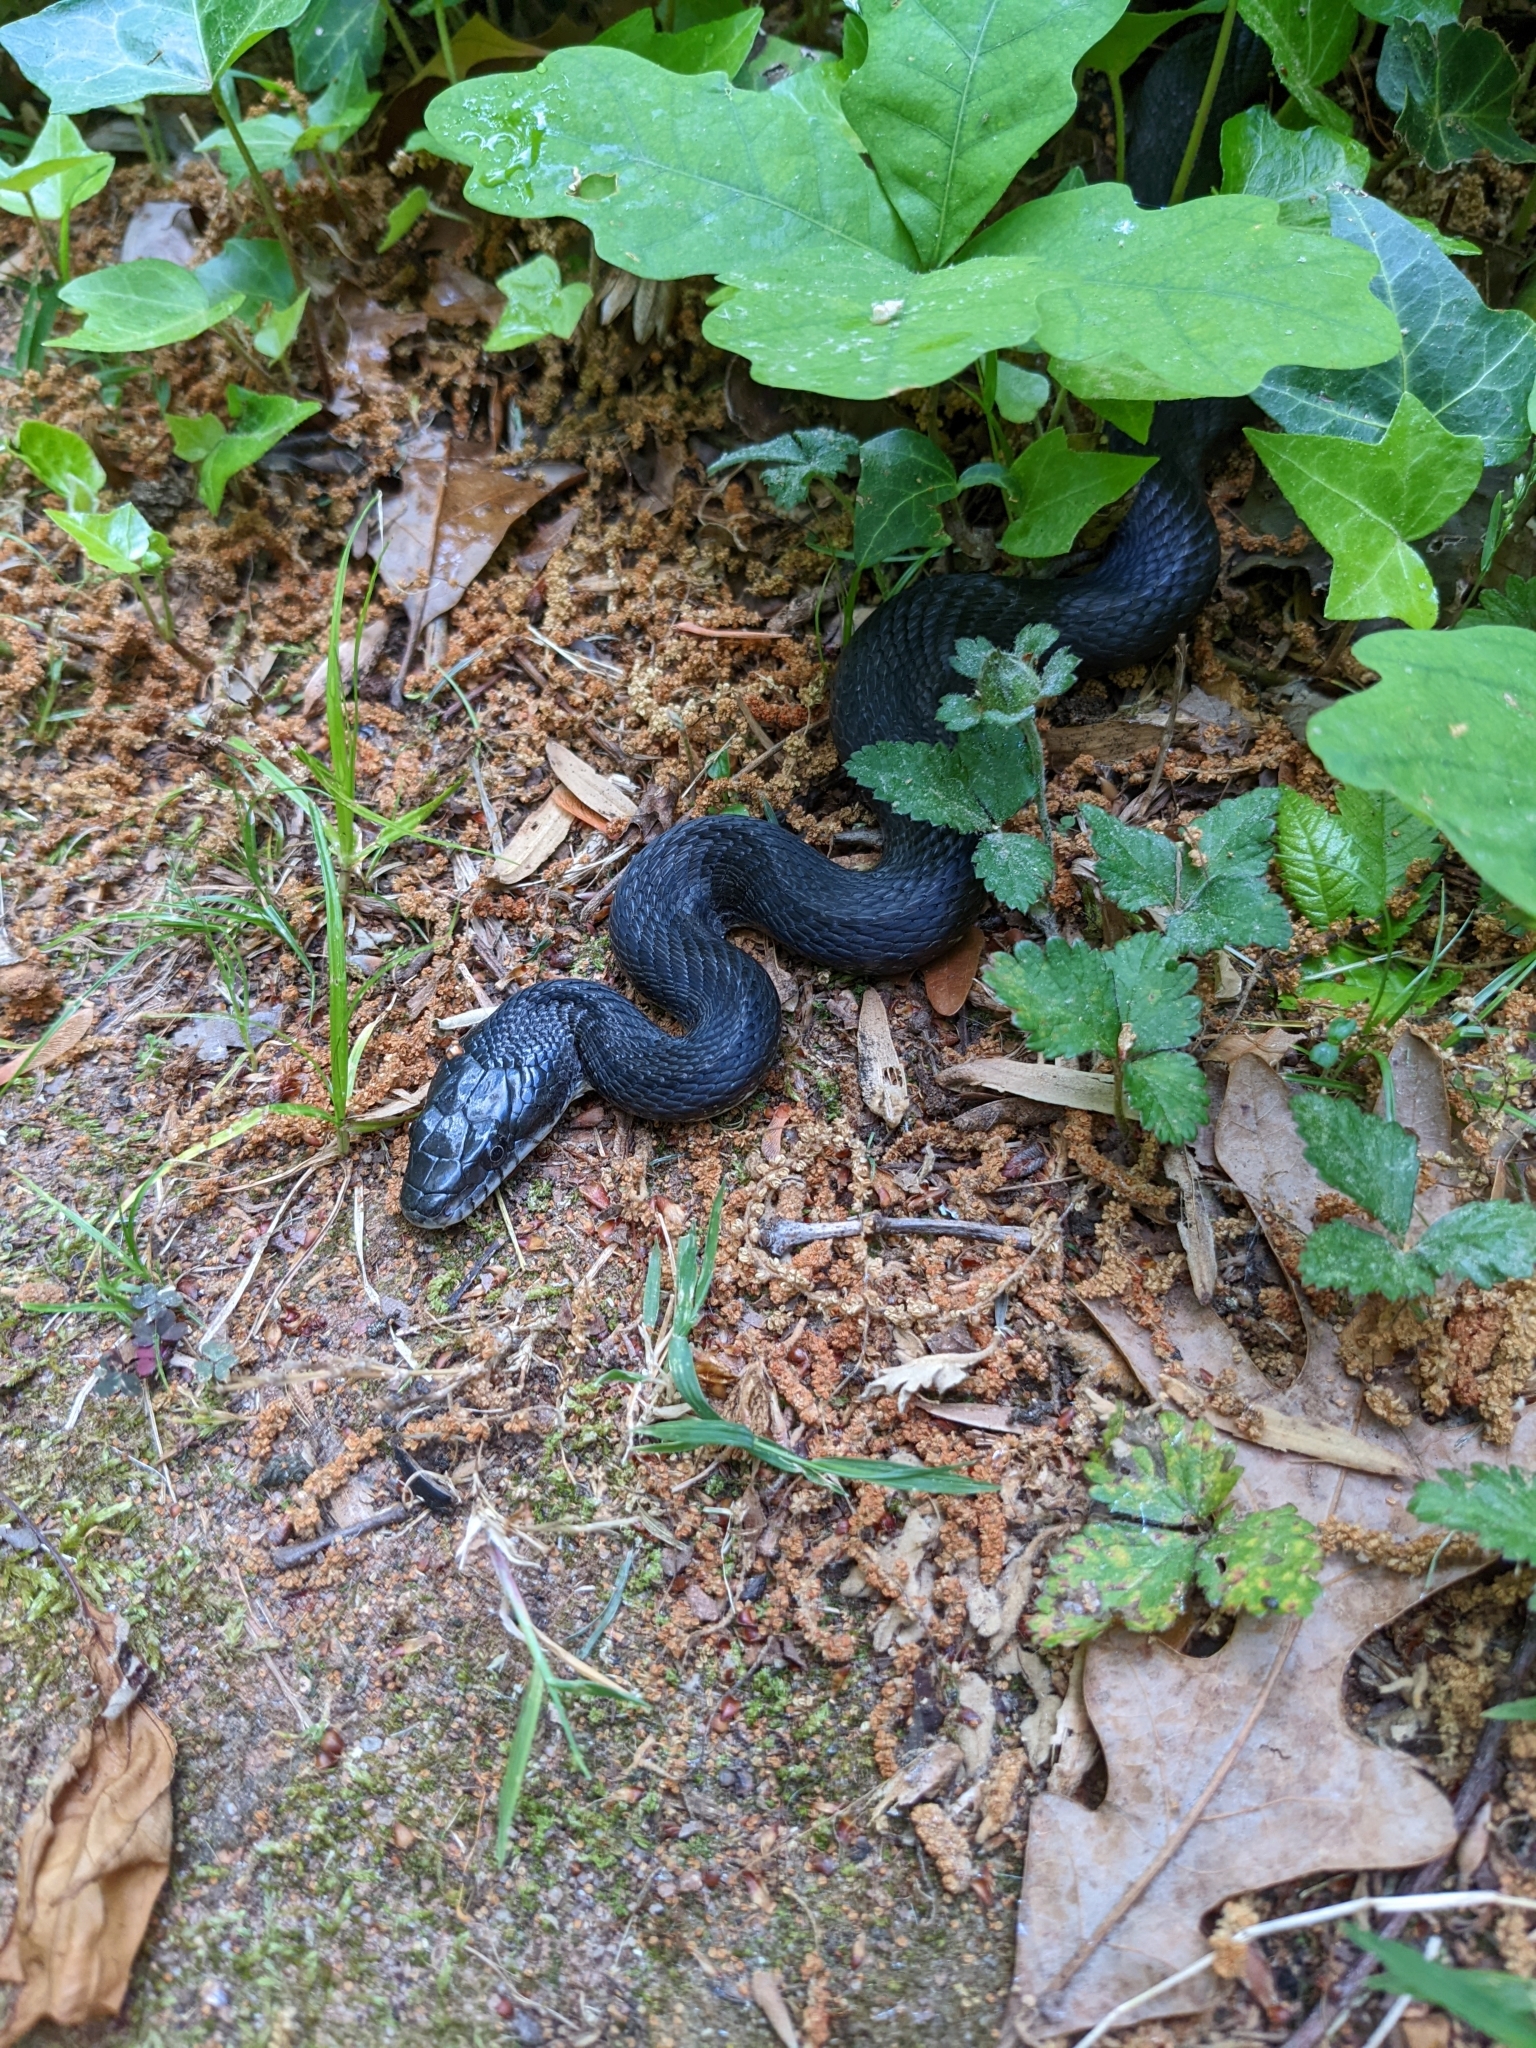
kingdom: Animalia
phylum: Chordata
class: Squamata
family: Colubridae
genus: Pantherophis
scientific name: Pantherophis alleghaniensis
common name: Eastern rat snake
